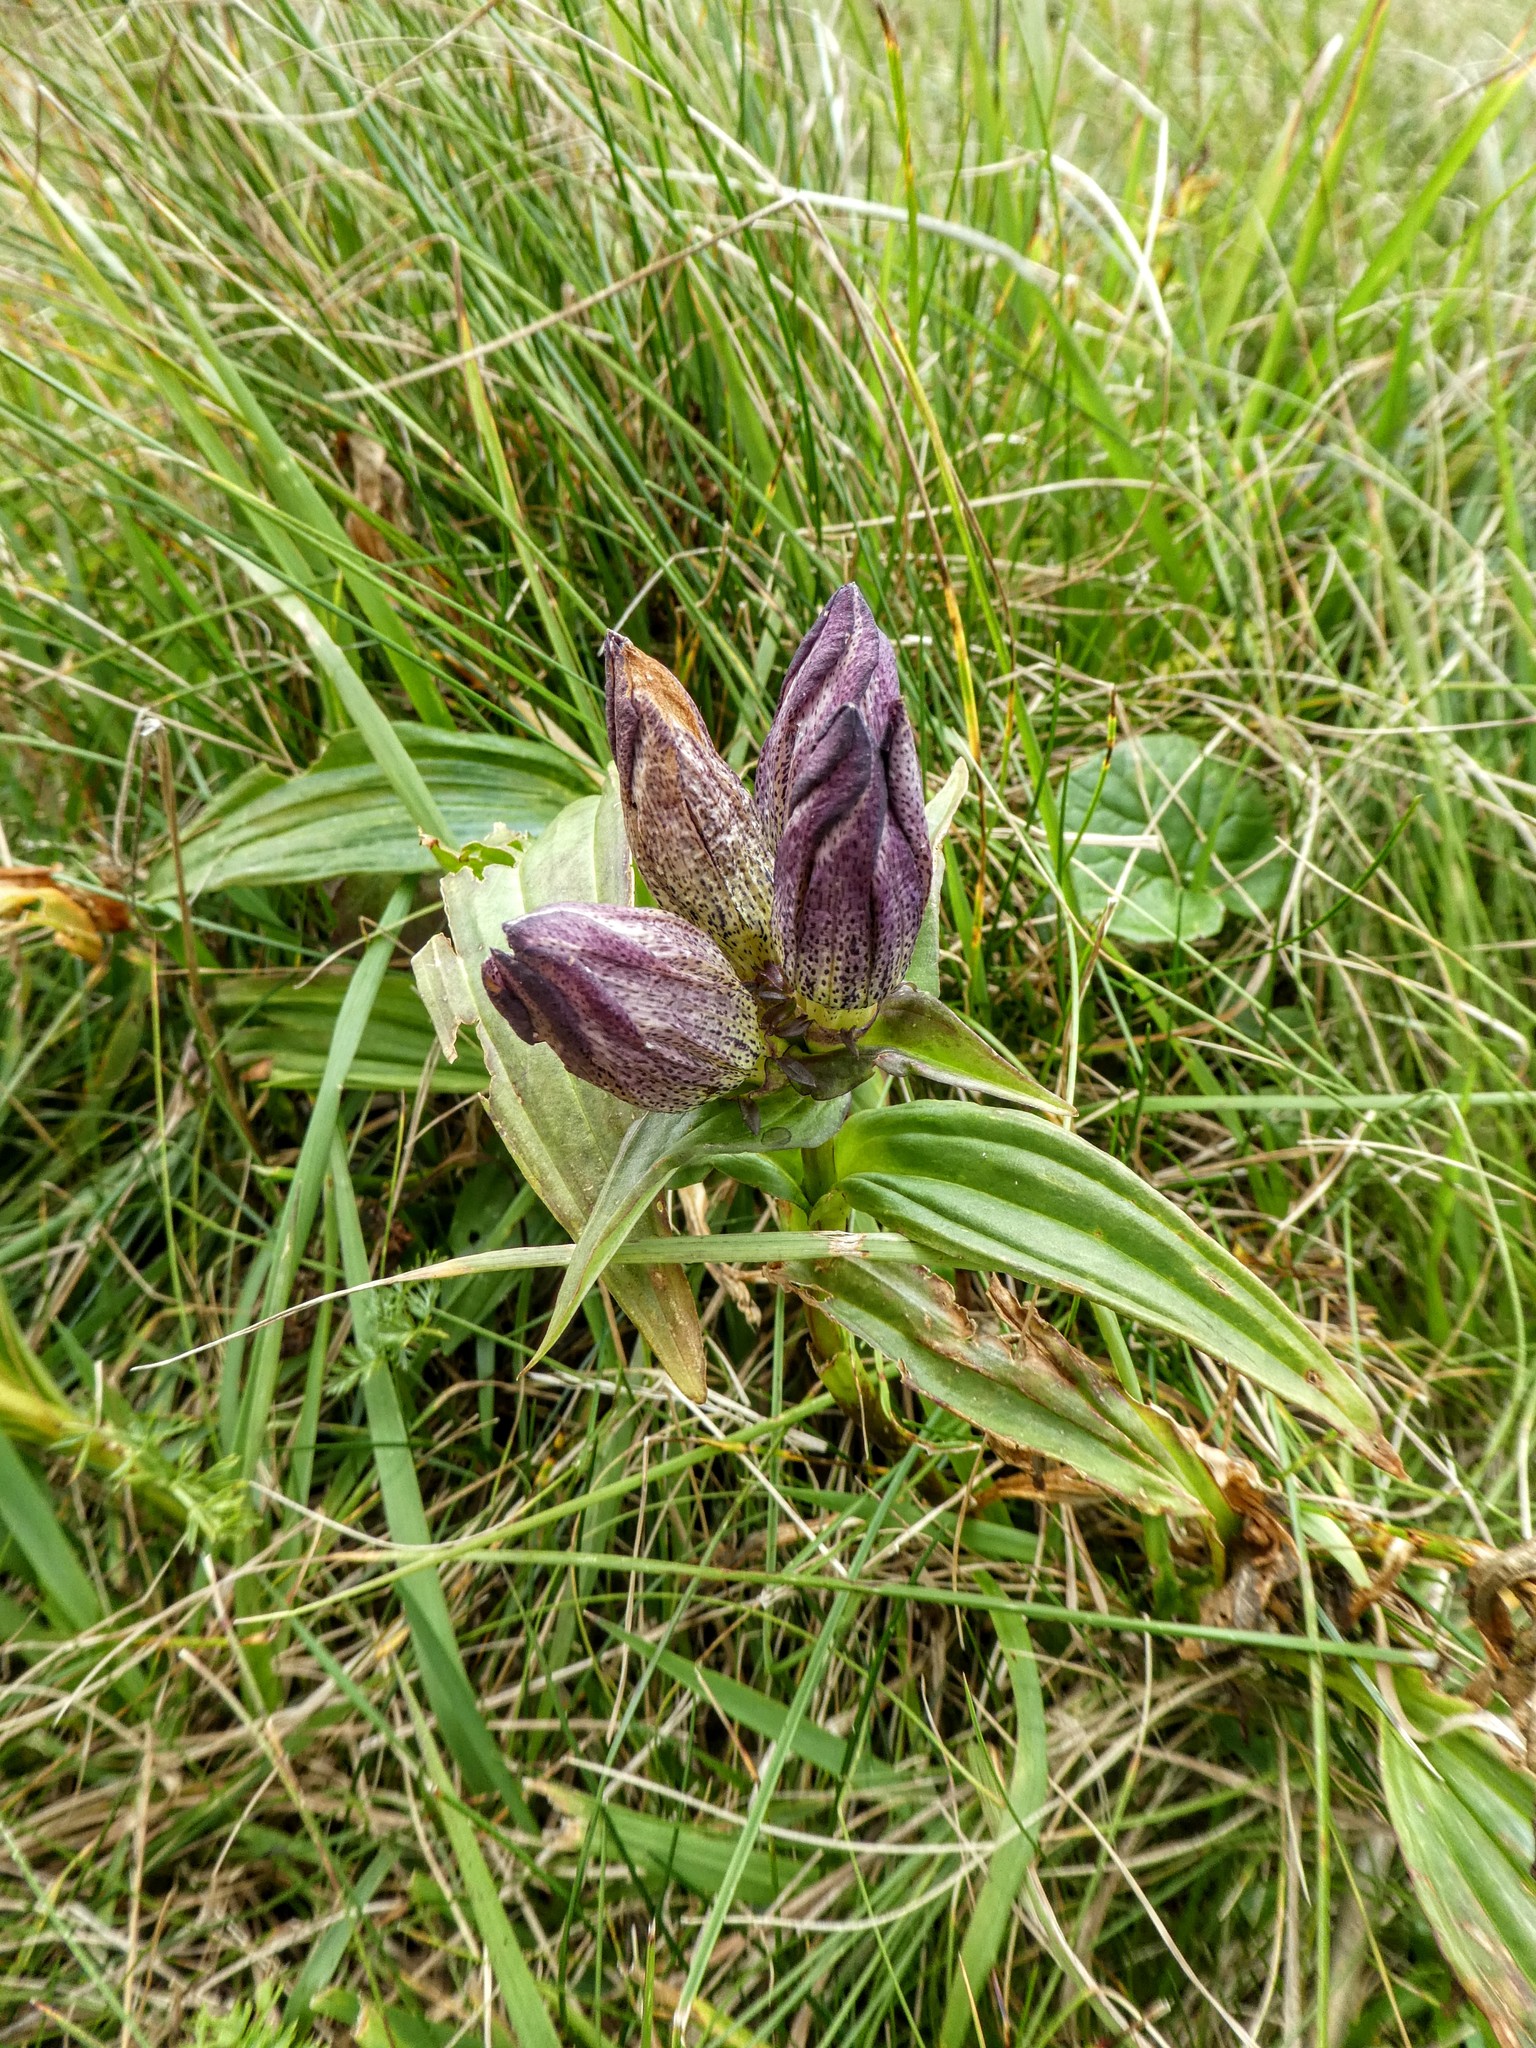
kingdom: Plantae
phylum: Tracheophyta
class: Magnoliopsida
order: Gentianales
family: Gentianaceae
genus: Gentiana
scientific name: Gentiana pannonica
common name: Hungarian gentian
